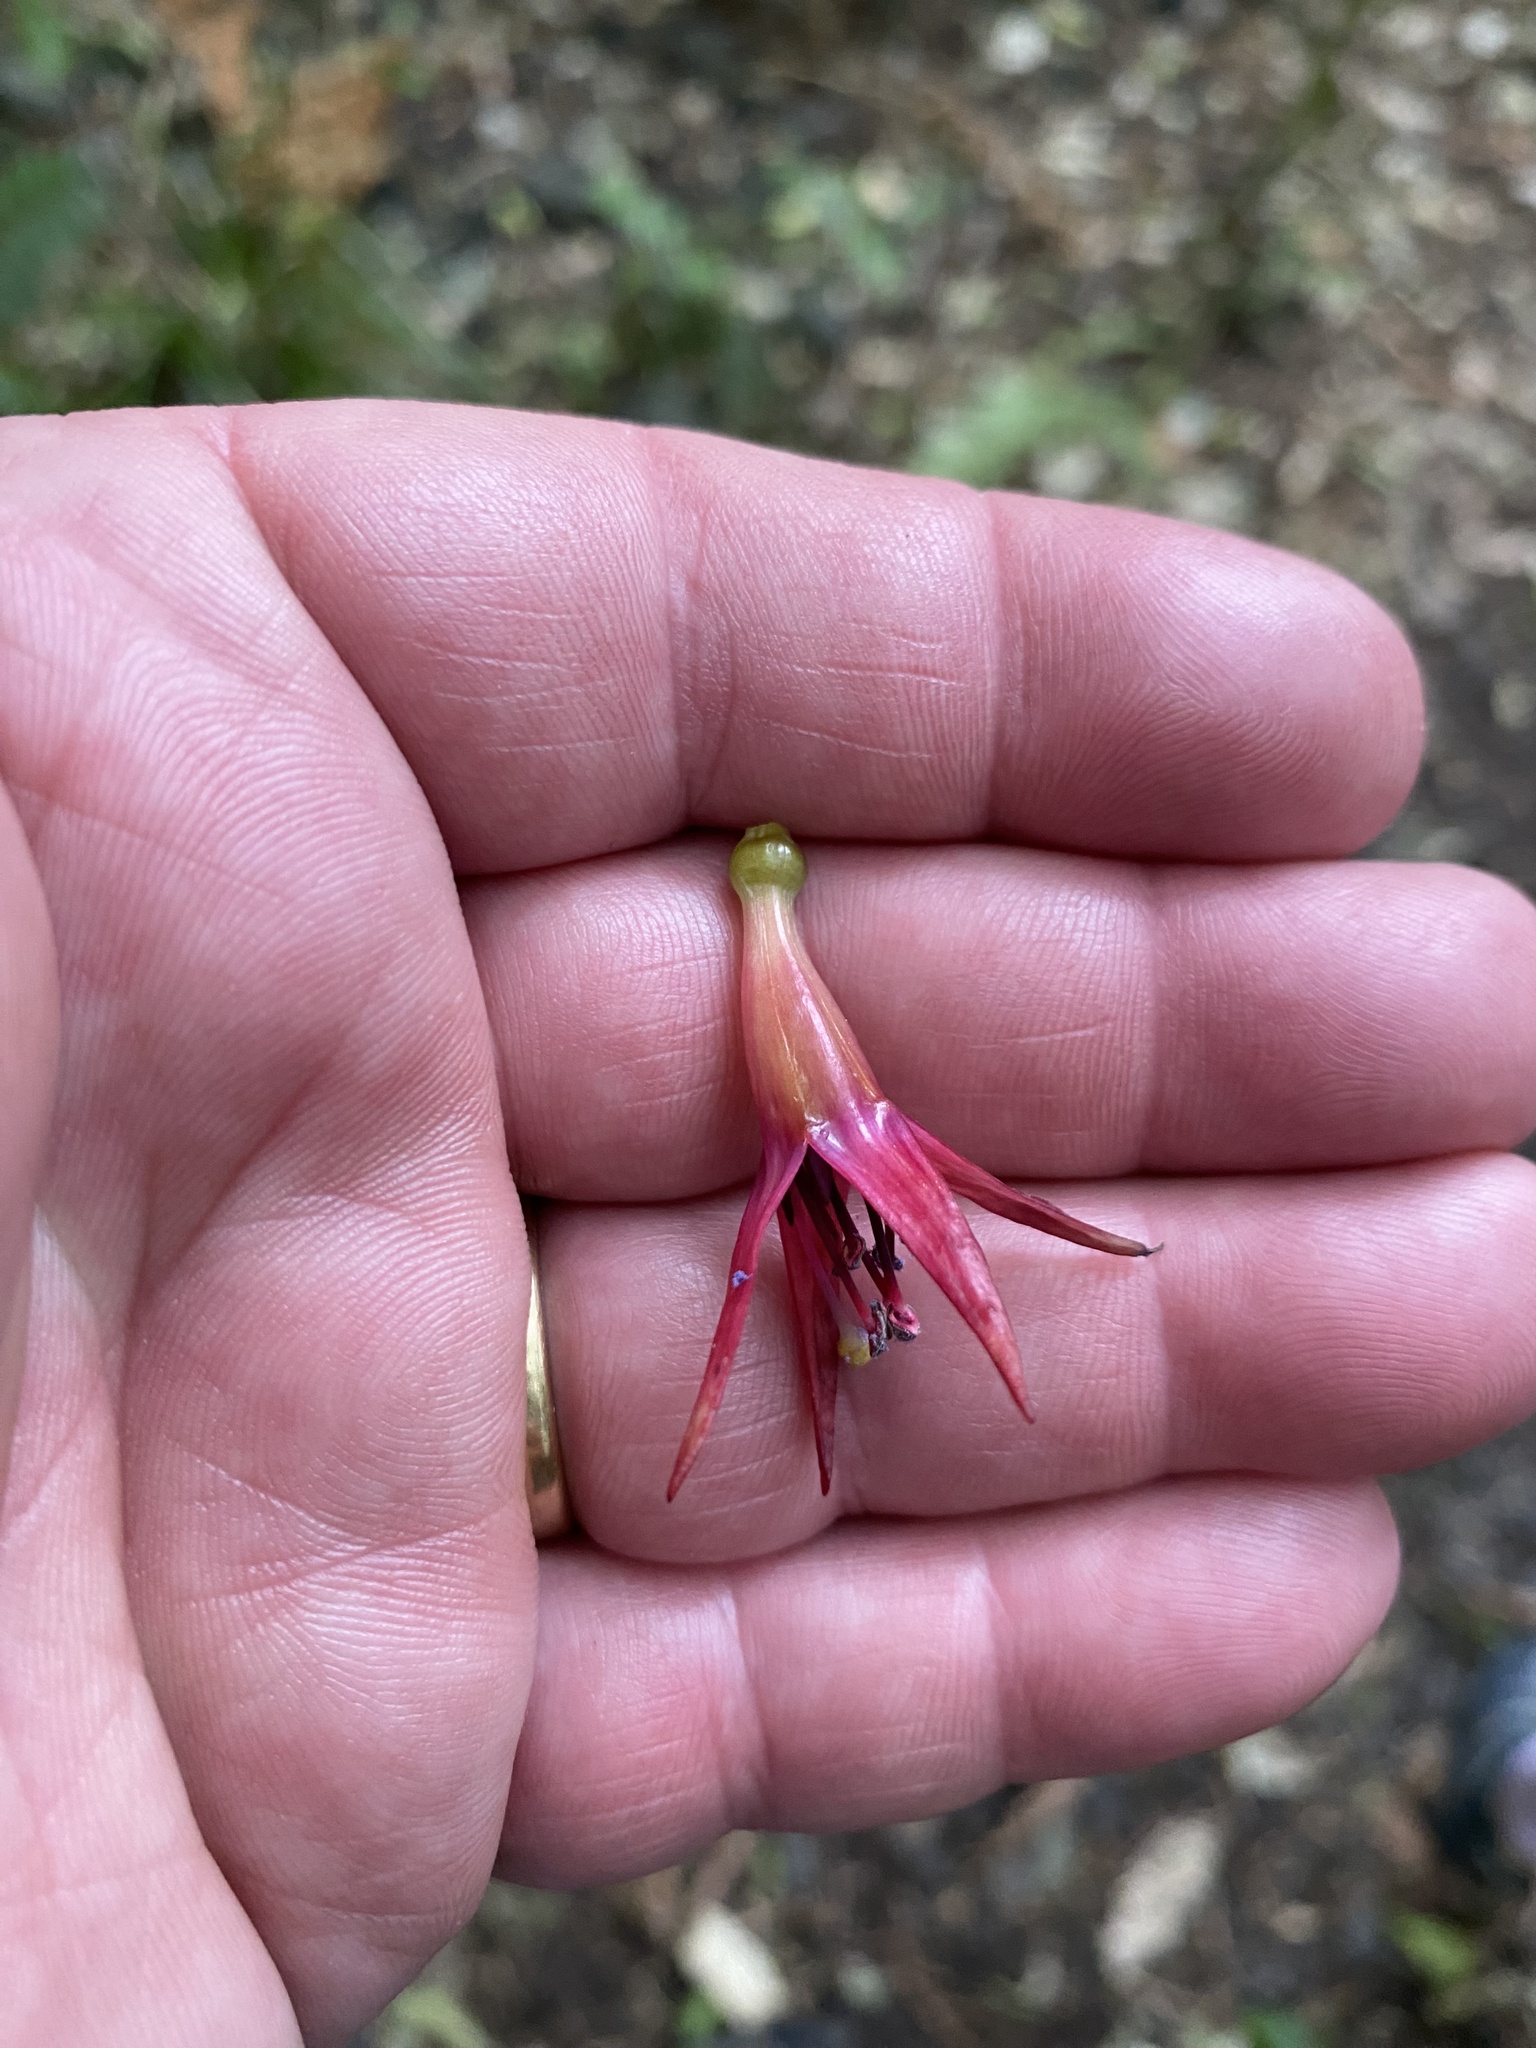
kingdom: Plantae
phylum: Tracheophyta
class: Magnoliopsida
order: Myrtales
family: Onagraceae
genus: Fuchsia
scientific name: Fuchsia excorticata
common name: Tree fuchsia
